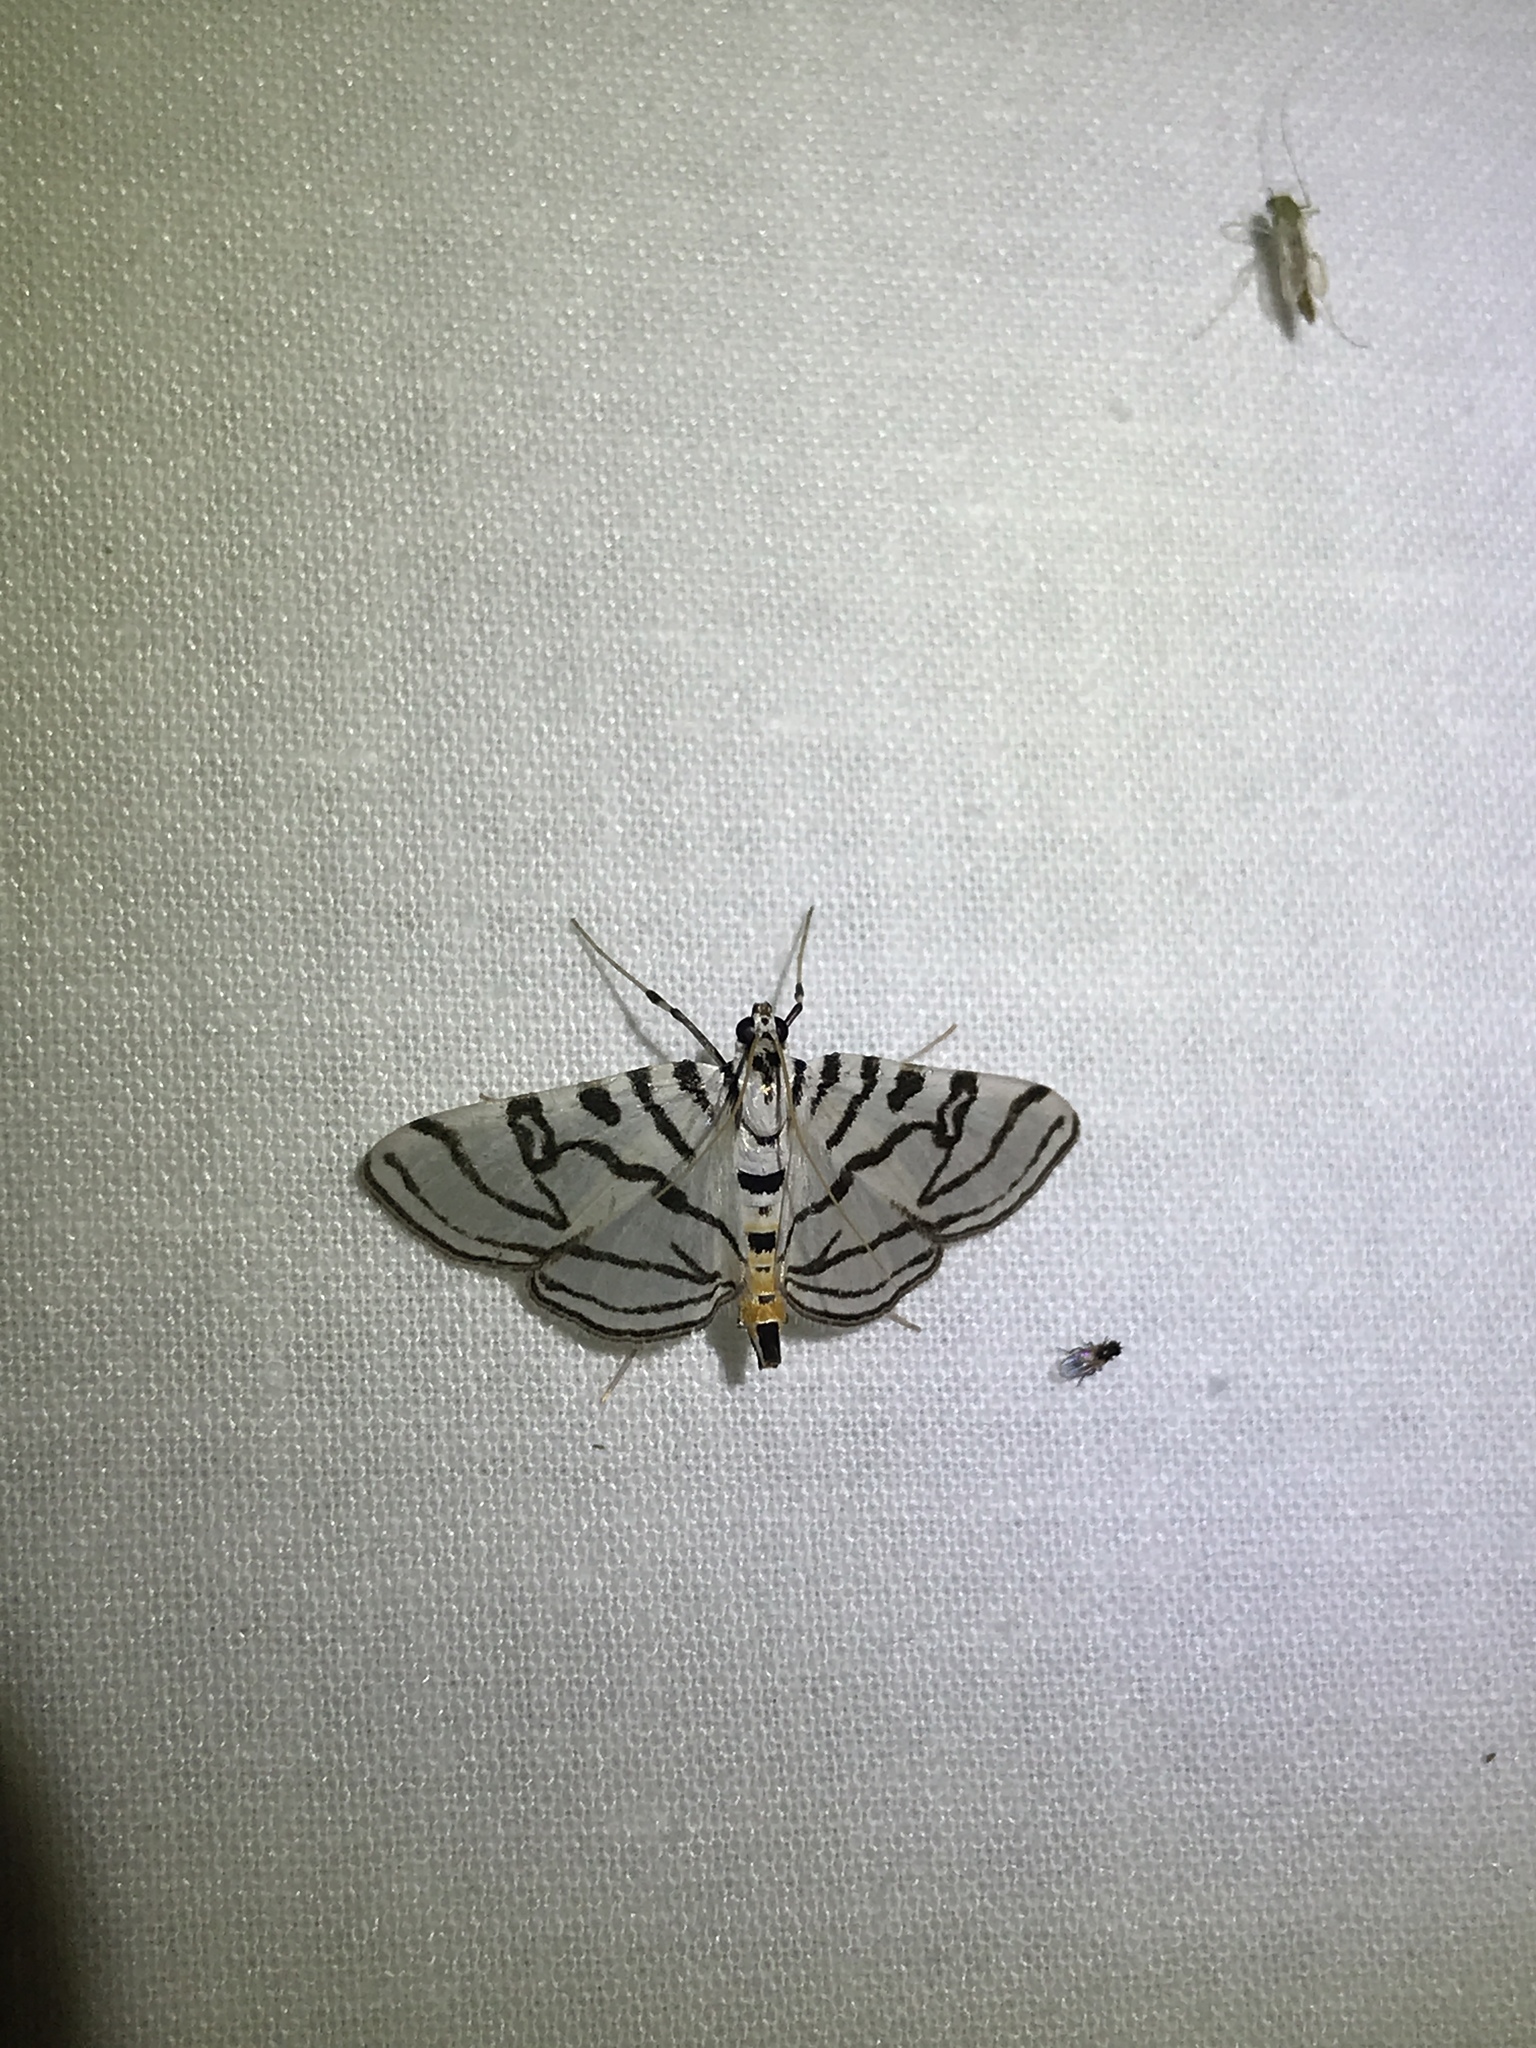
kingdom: Animalia
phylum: Arthropoda
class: Insecta
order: Lepidoptera
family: Crambidae
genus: Conchylodes
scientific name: Conchylodes ovulalis
